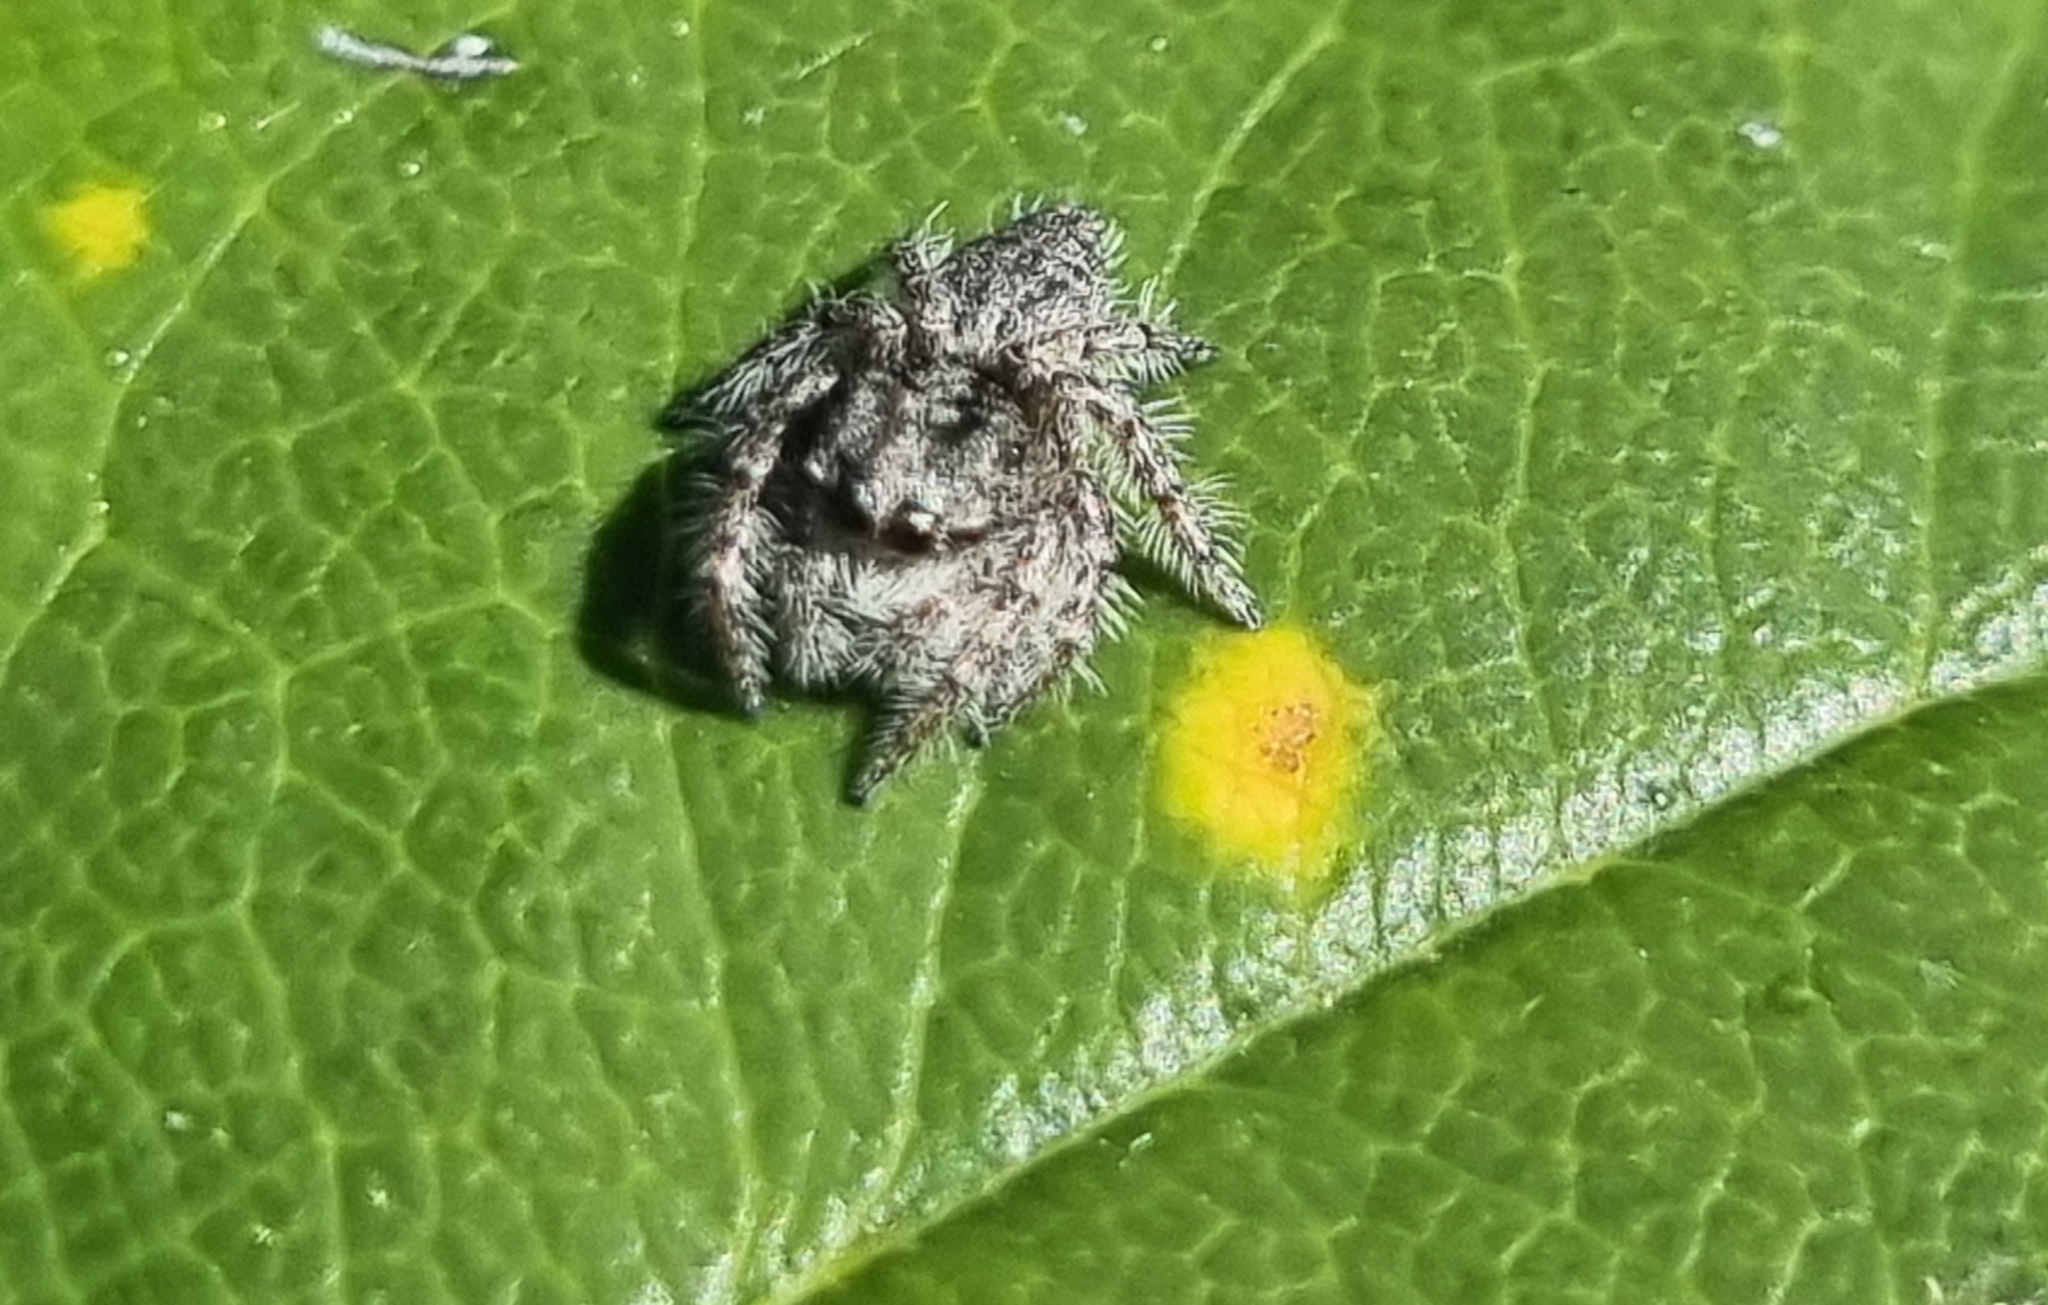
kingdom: Animalia
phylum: Arthropoda
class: Arachnida
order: Araneae
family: Salticidae
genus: Cytaea
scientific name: Cytaea aspera
